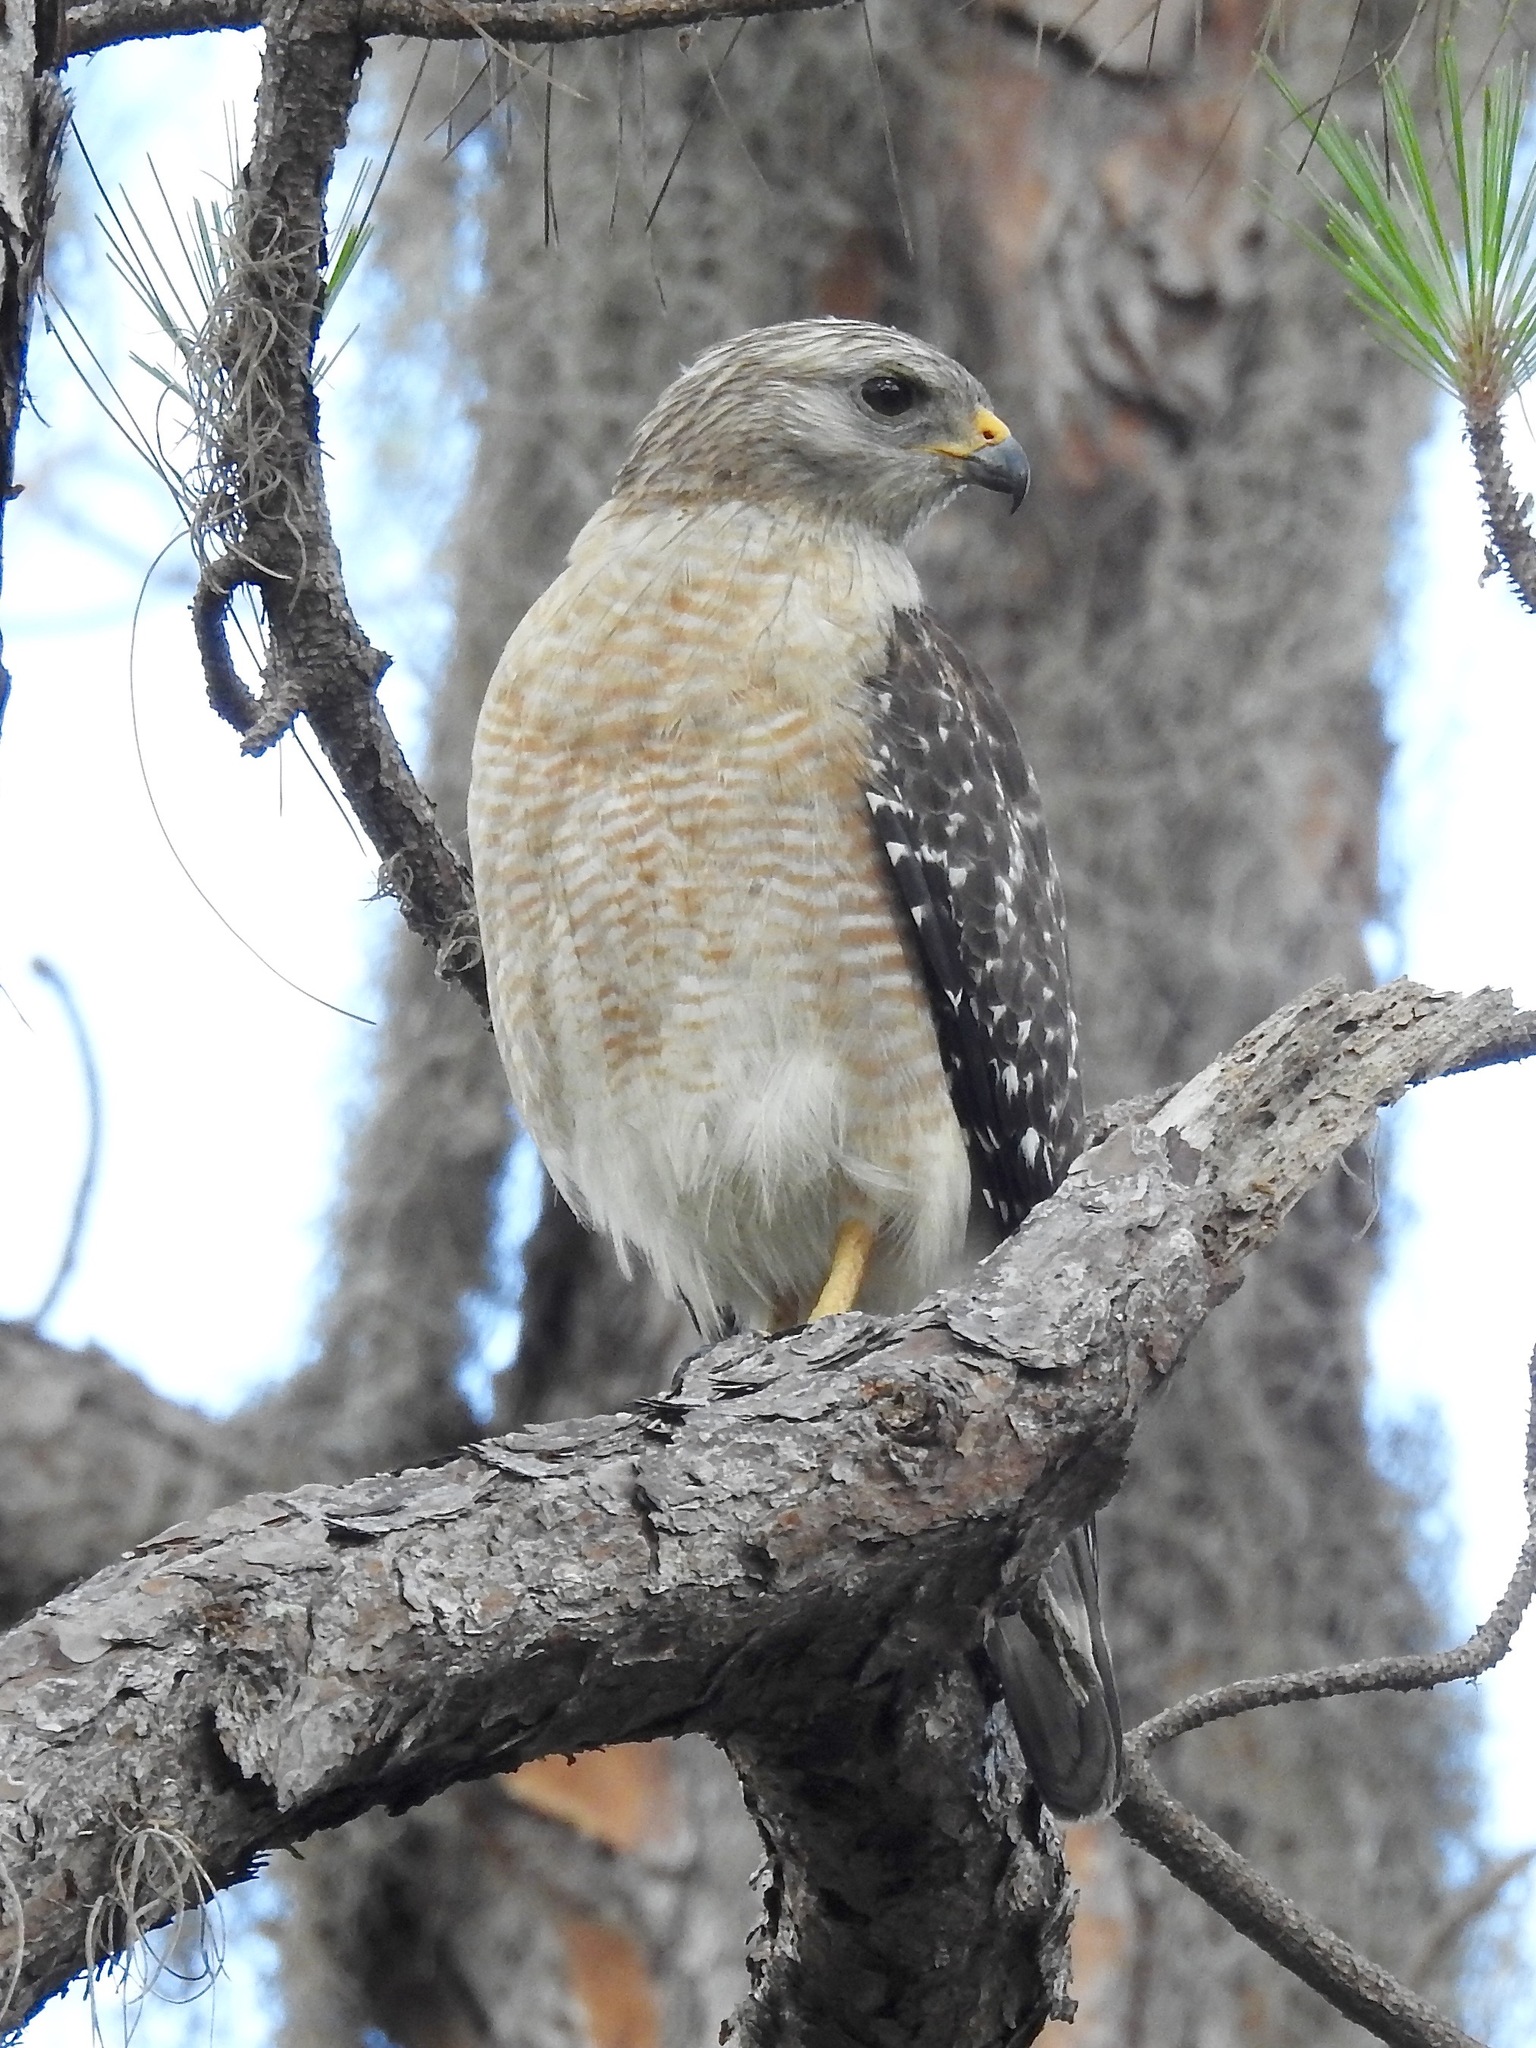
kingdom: Animalia
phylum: Chordata
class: Aves
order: Accipitriformes
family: Accipitridae
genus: Buteo
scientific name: Buteo lineatus
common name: Red-shouldered hawk
